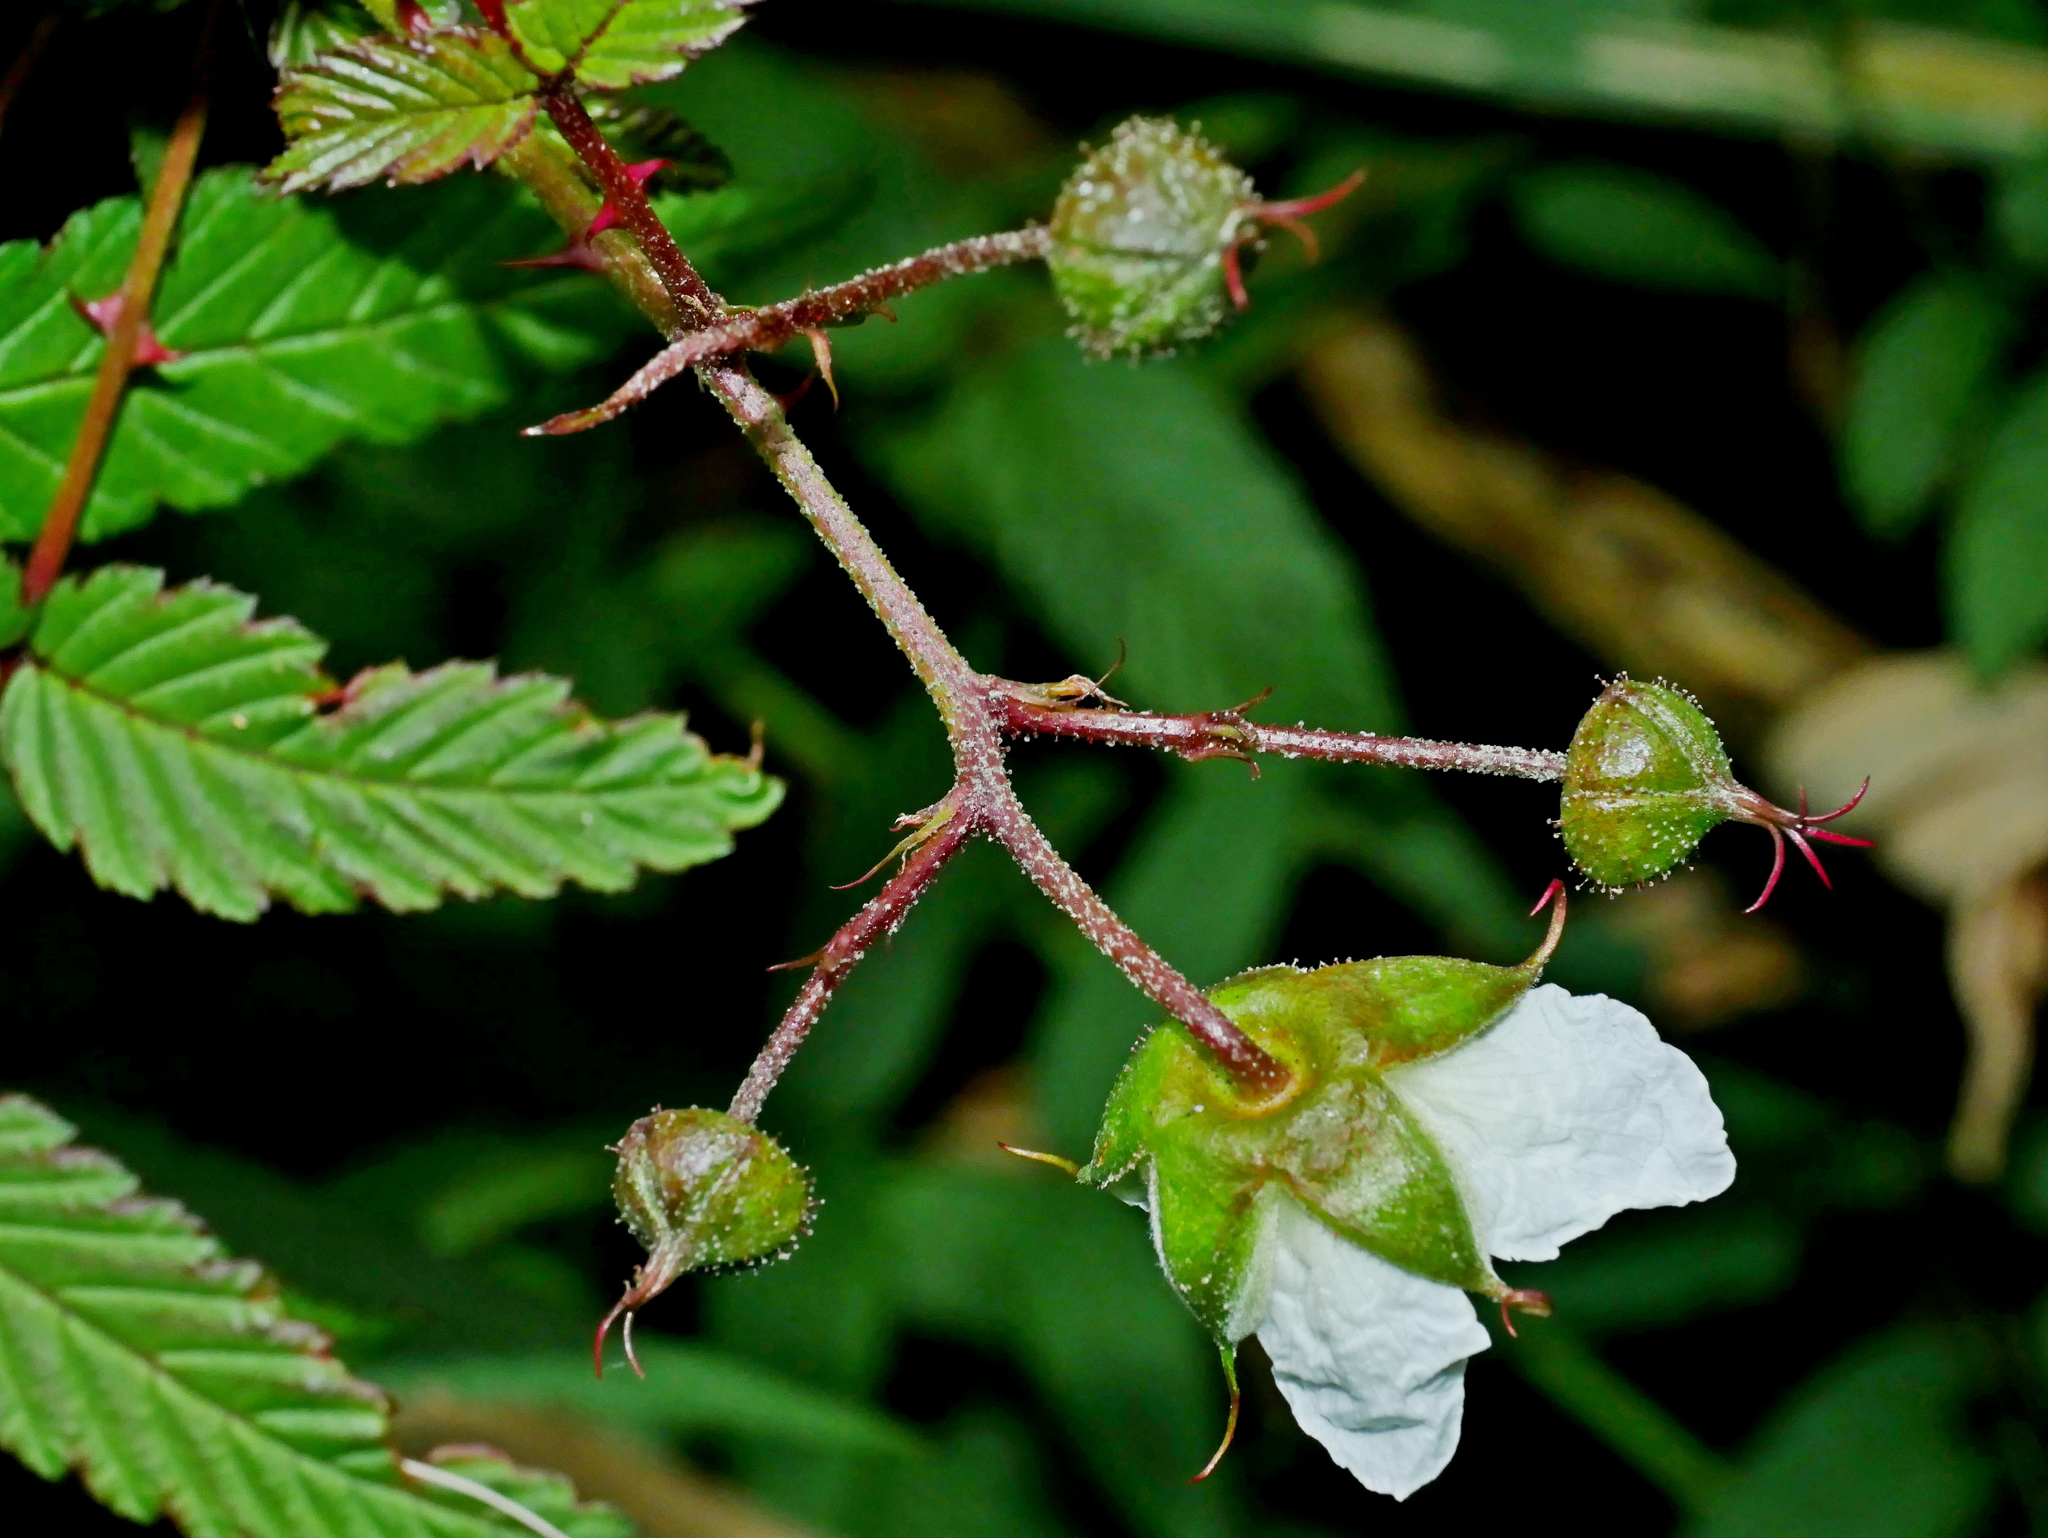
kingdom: Plantae
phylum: Tracheophyta
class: Magnoliopsida
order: Rosales
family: Rosaceae
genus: Rubus
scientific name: Rubus linearifoliolus
